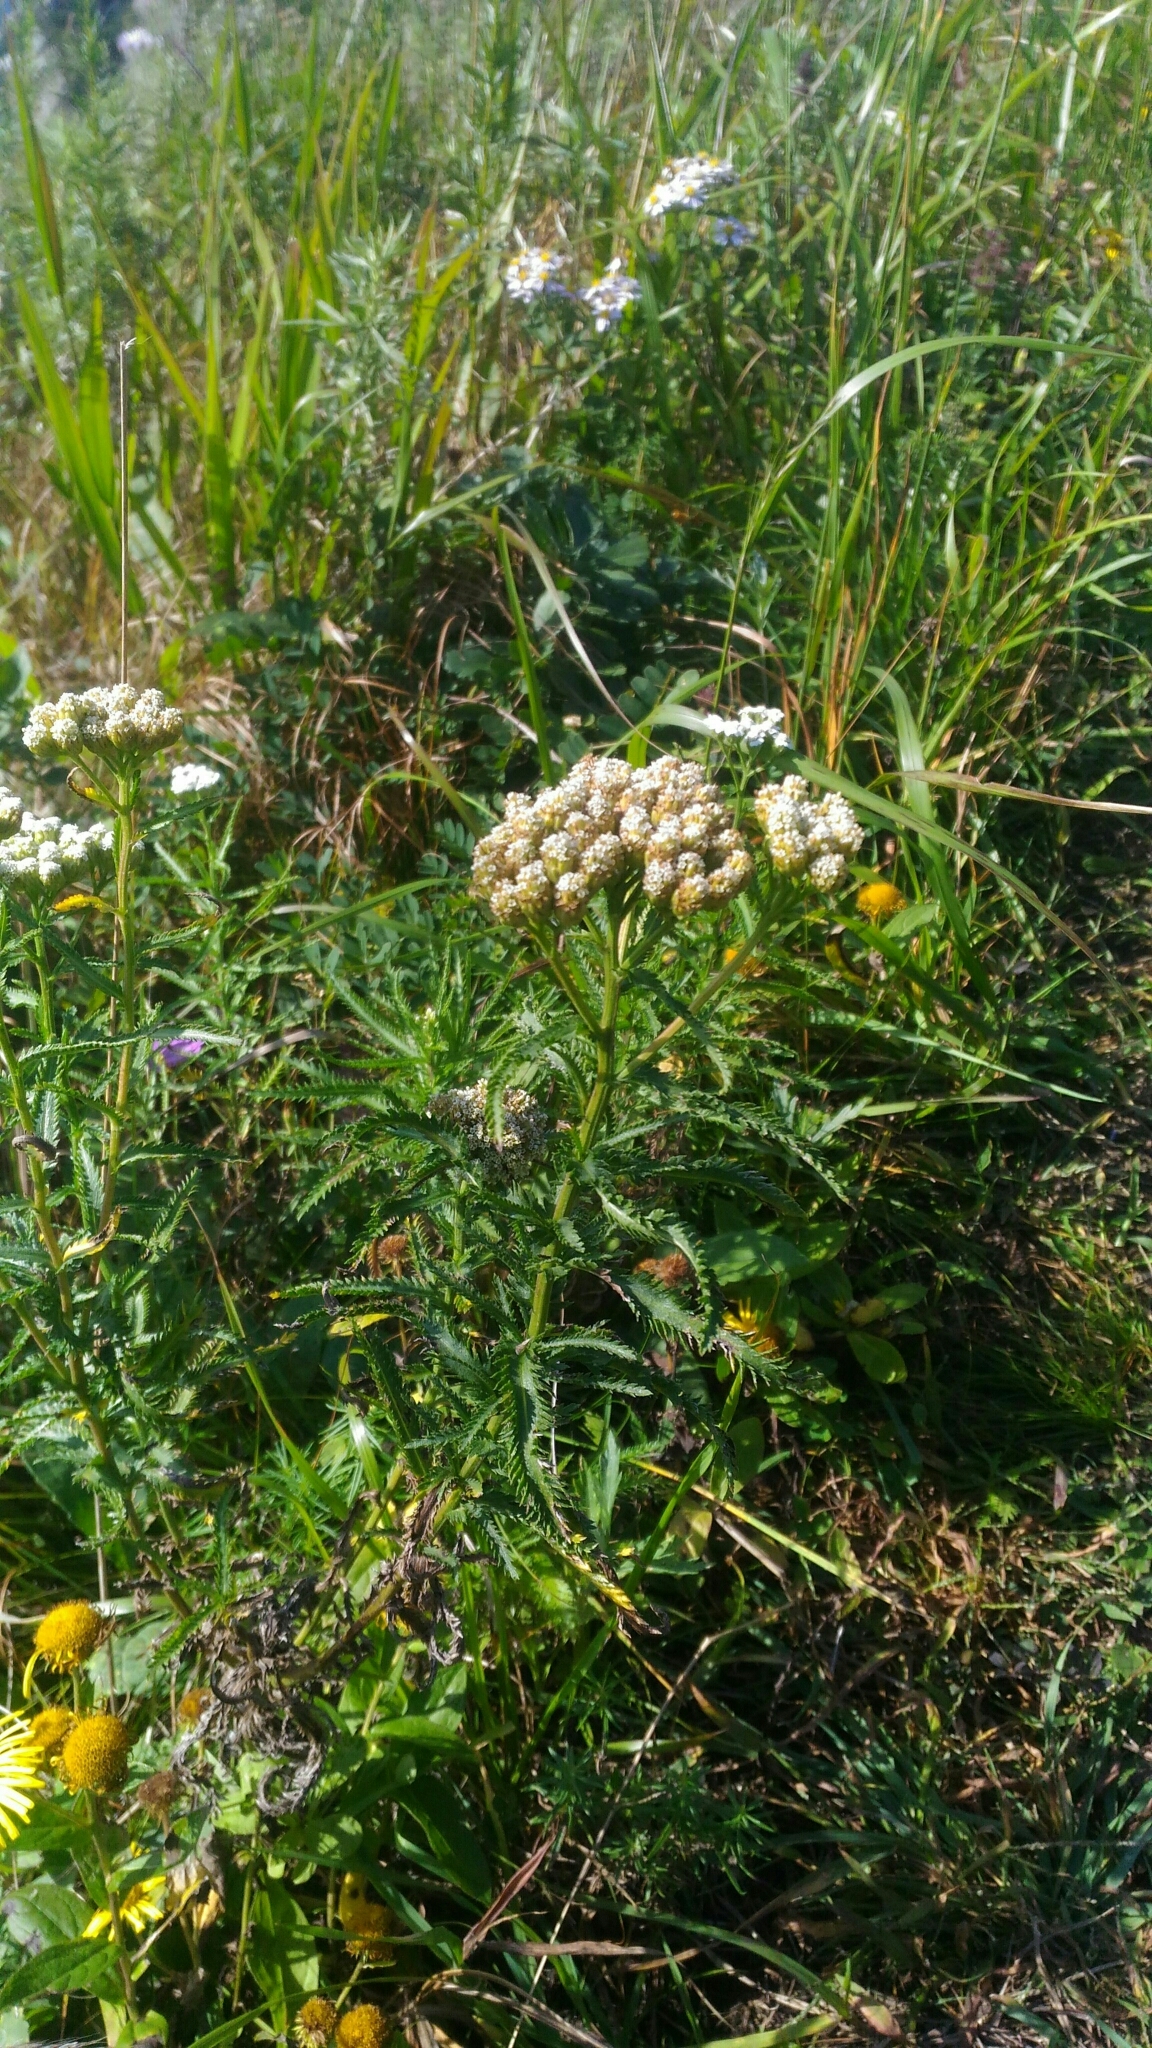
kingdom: Plantae
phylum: Tracheophyta
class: Magnoliopsida
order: Asterales
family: Asteraceae
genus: Achillea
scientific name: Achillea ptarmicoides
